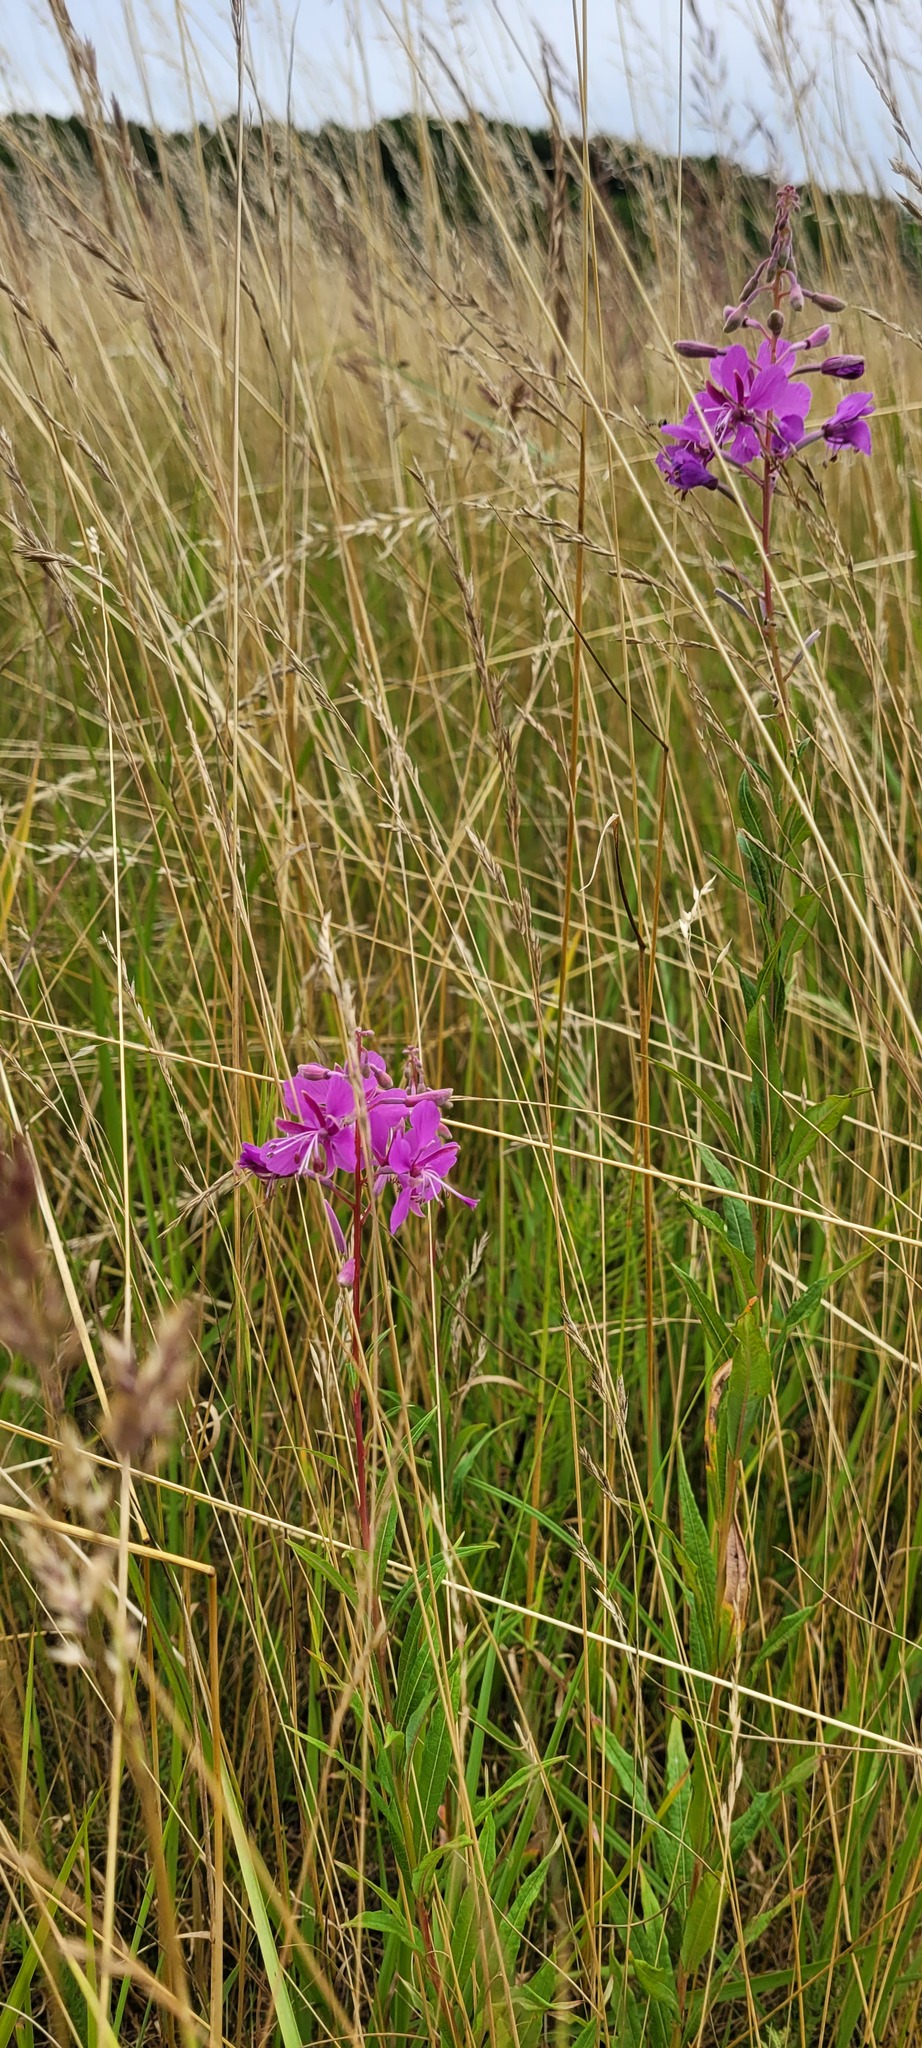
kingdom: Plantae
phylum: Tracheophyta
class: Magnoliopsida
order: Myrtales
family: Onagraceae
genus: Chamaenerion
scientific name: Chamaenerion angustifolium
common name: Fireweed
